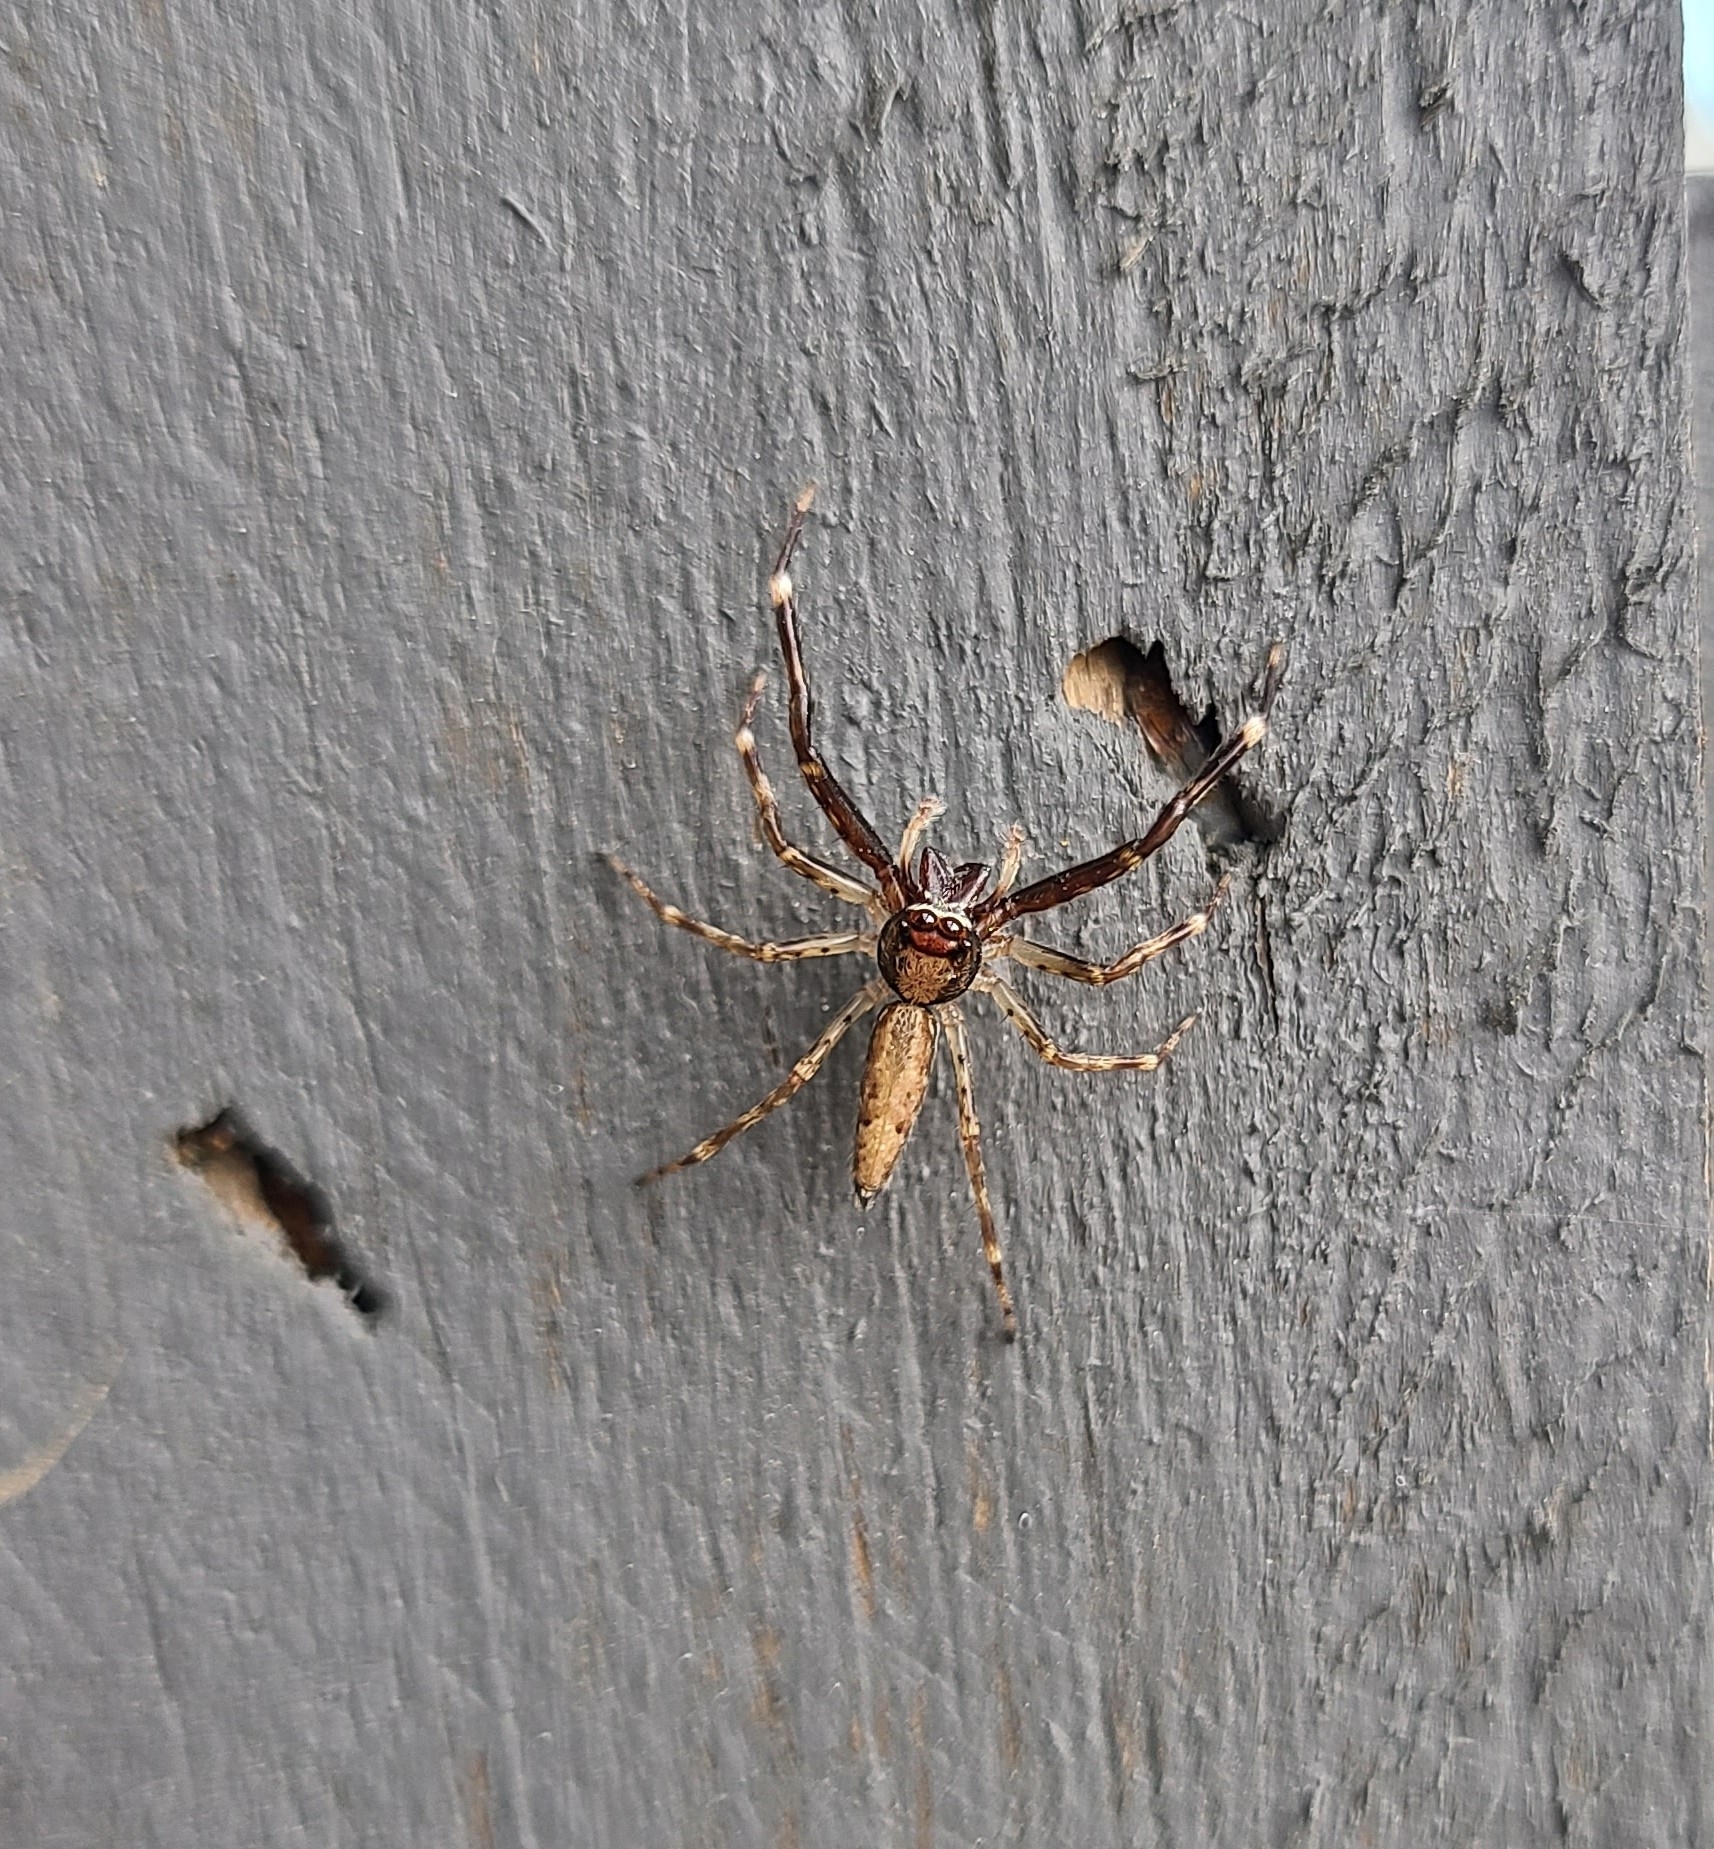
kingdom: Animalia
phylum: Arthropoda
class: Arachnida
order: Araneae
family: Salticidae
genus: Helpis
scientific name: Helpis minitabunda
